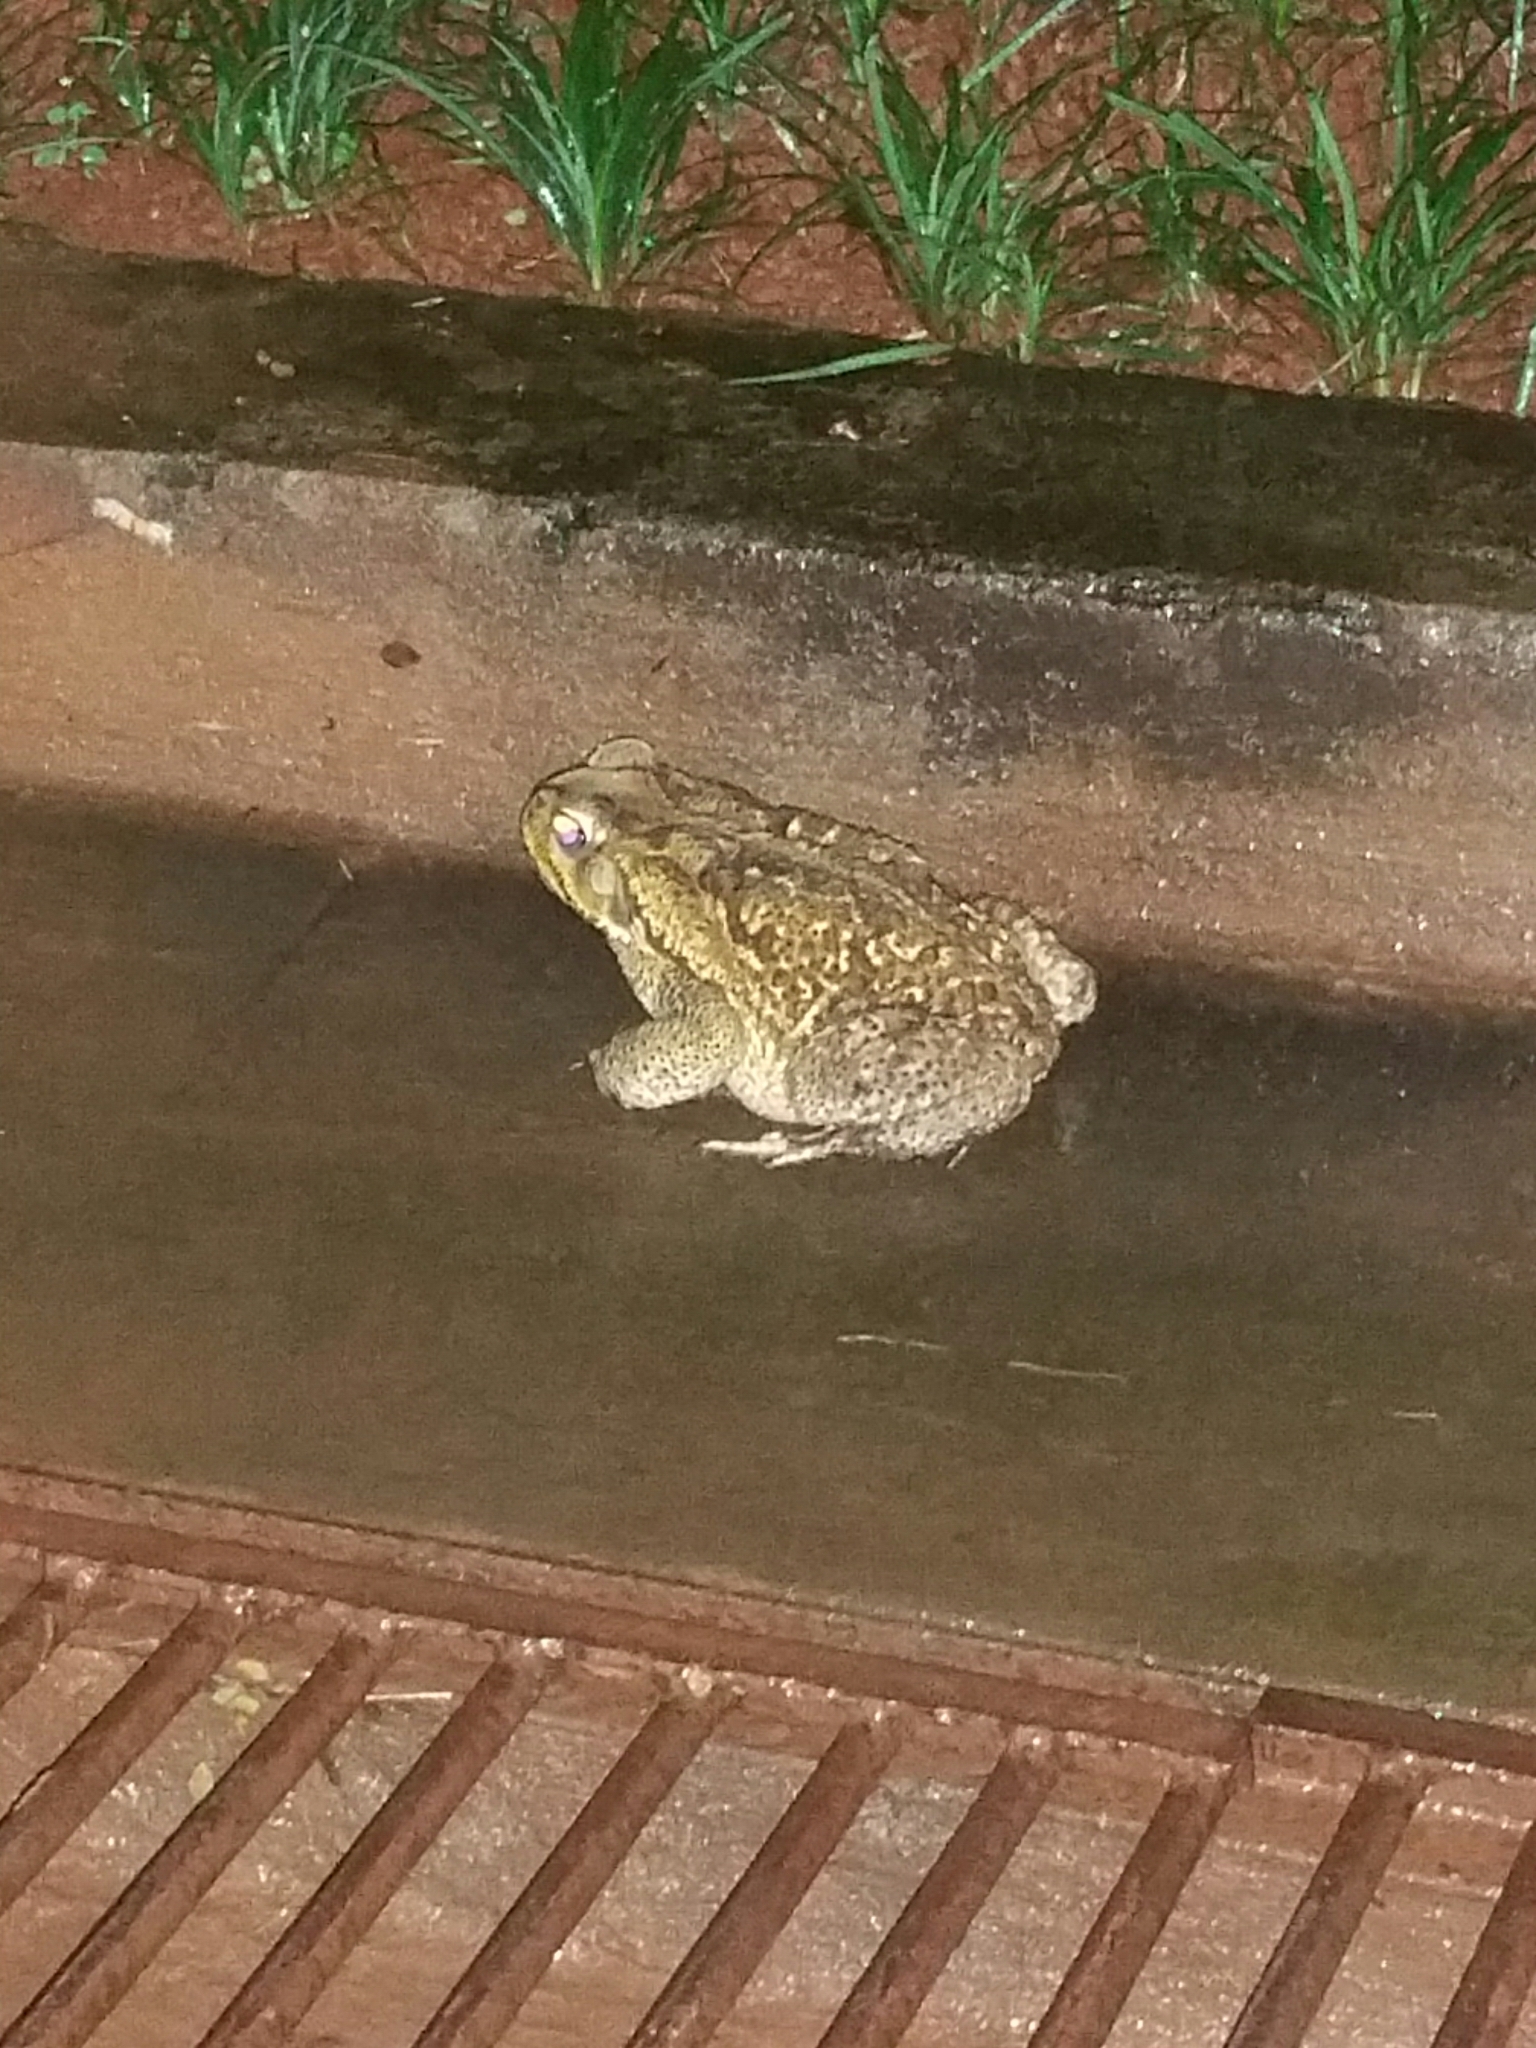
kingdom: Animalia
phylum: Chordata
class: Amphibia
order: Anura
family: Bufonidae
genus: Rhinella
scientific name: Rhinella diptycha
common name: Cope's toad
